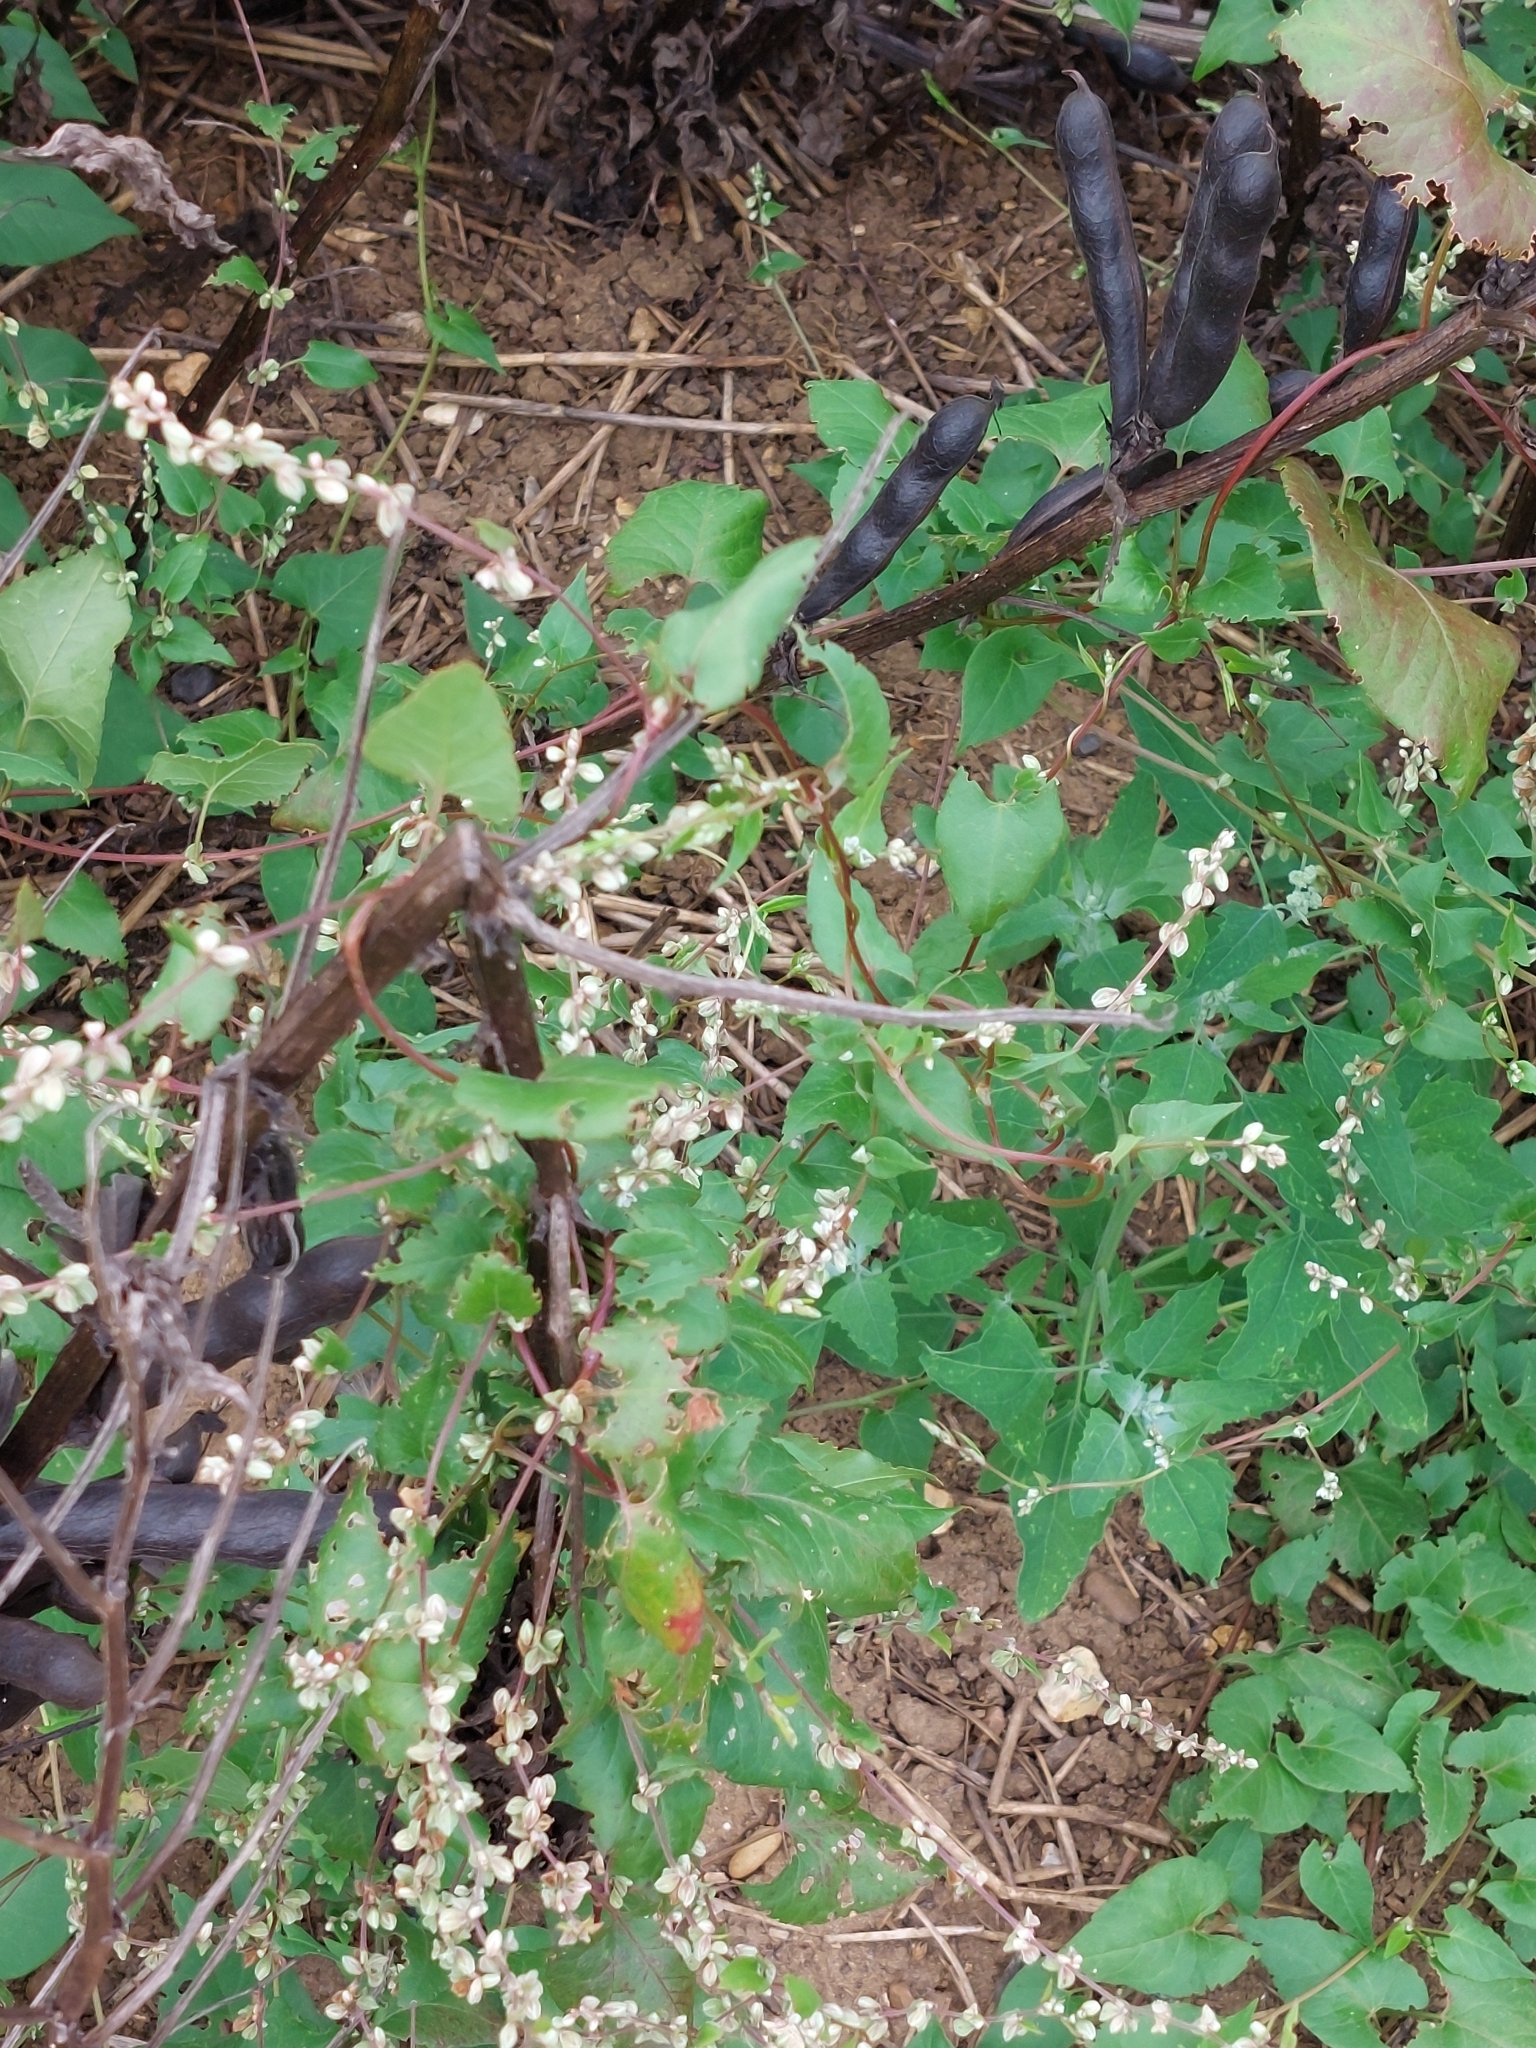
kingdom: Plantae
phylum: Tracheophyta
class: Magnoliopsida
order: Caryophyllales
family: Polygonaceae
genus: Fallopia
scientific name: Fallopia convolvulus
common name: Black bindweed
